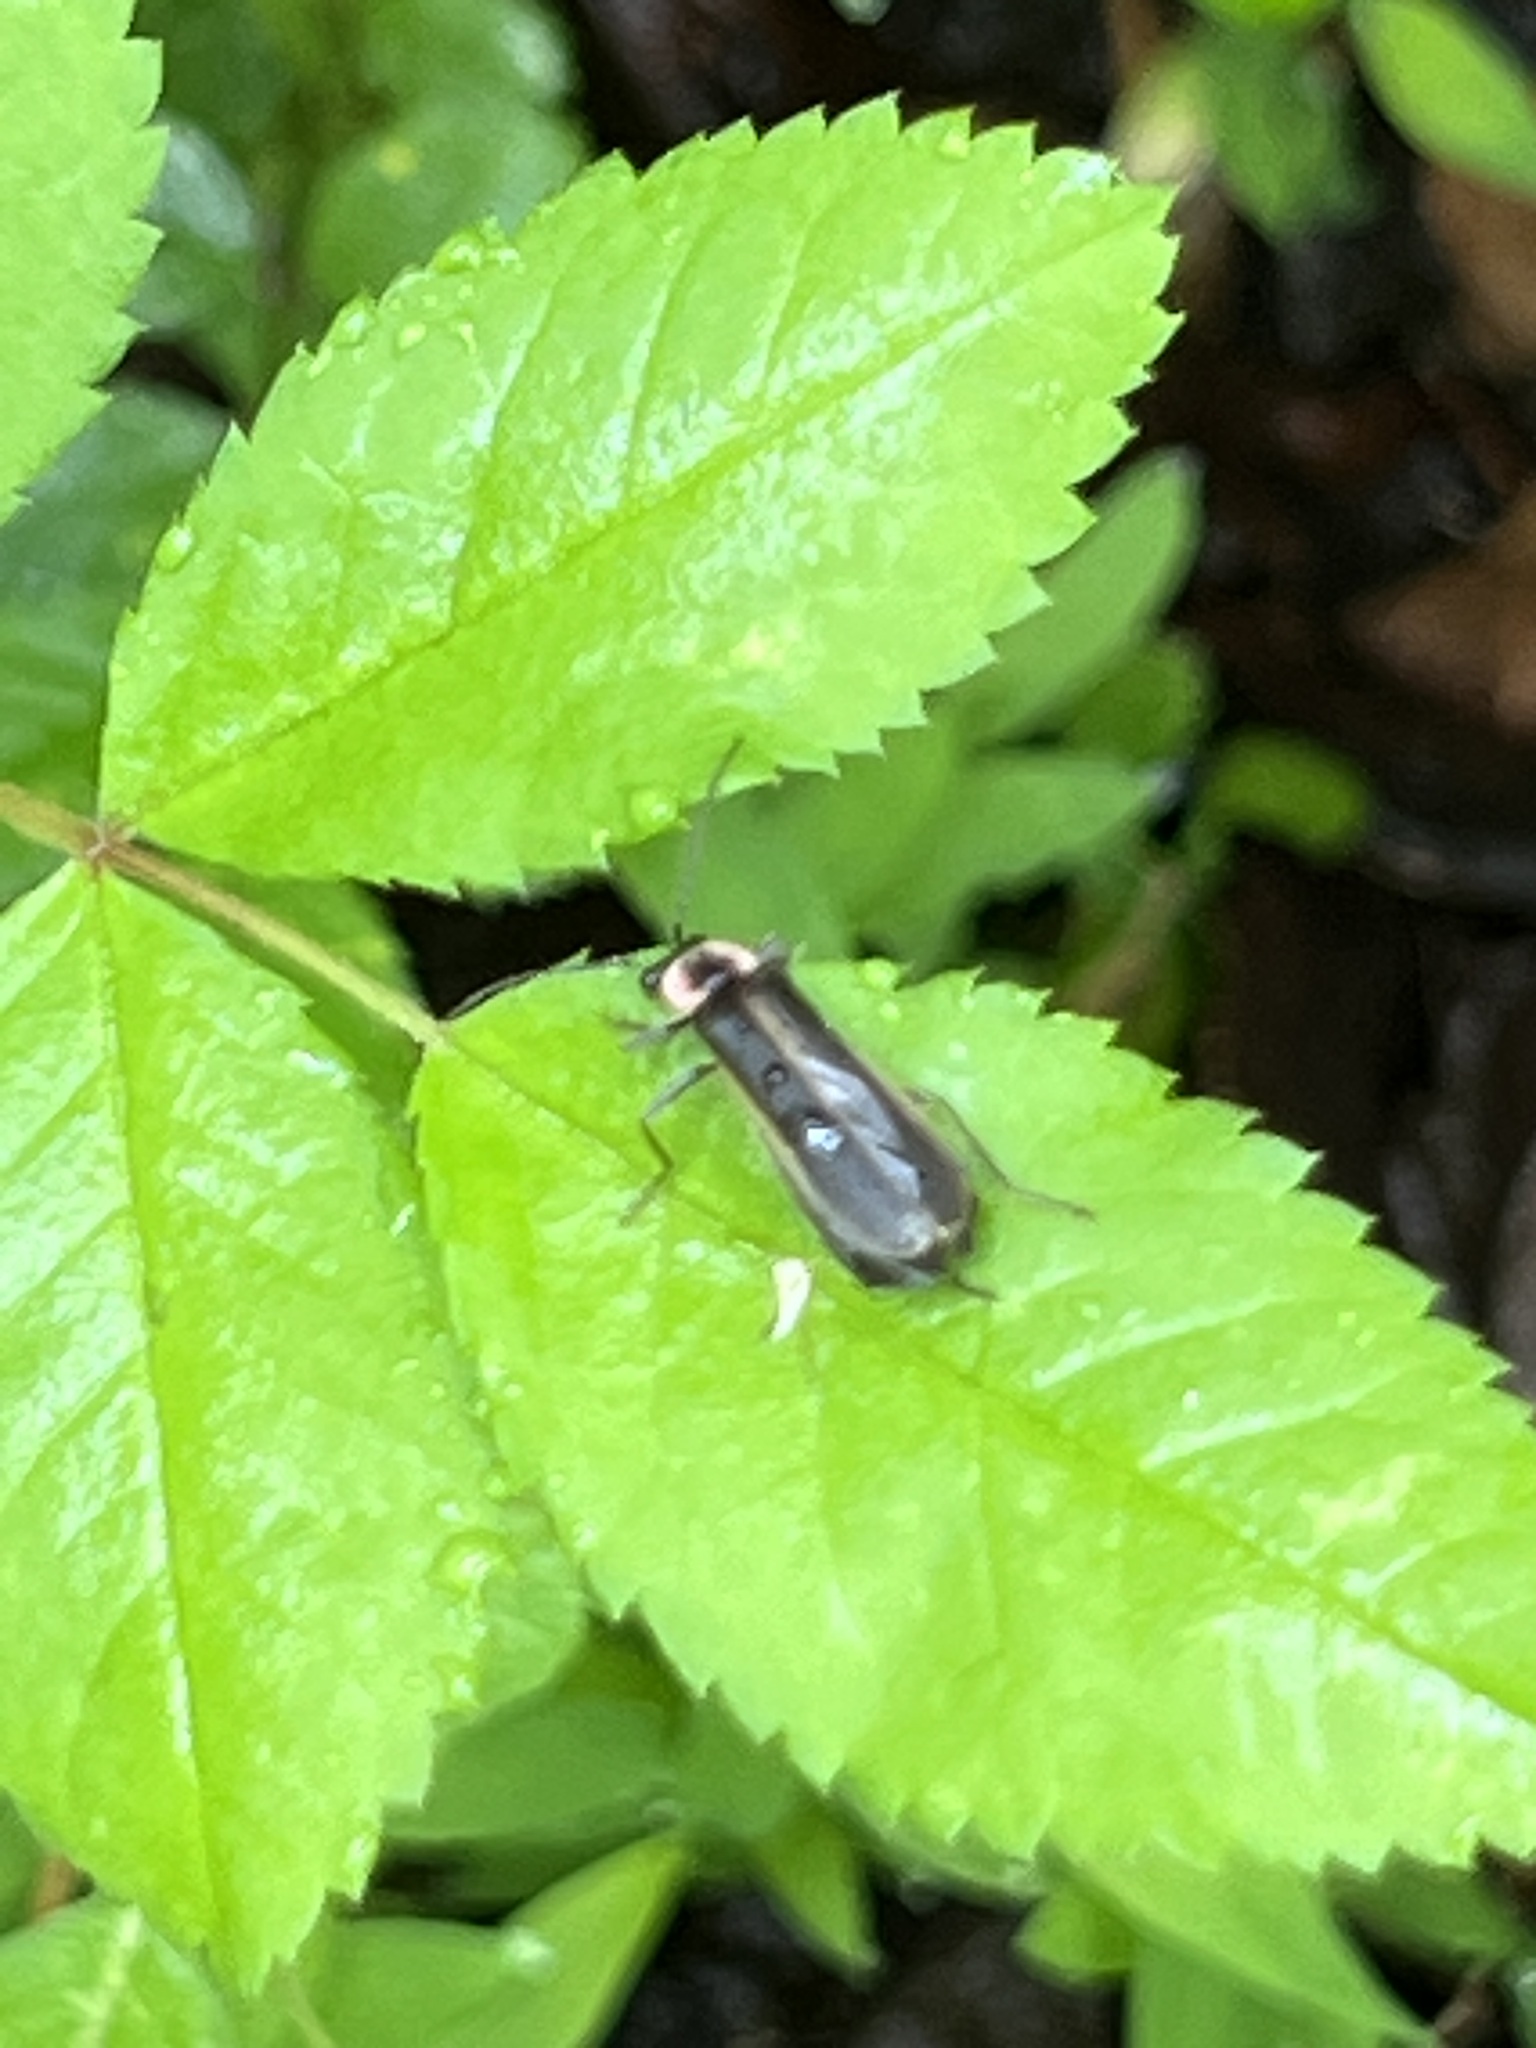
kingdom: Animalia
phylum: Arthropoda
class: Insecta
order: Coleoptera
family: Cantharidae
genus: Podabrus
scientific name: Podabrus brevicollis
